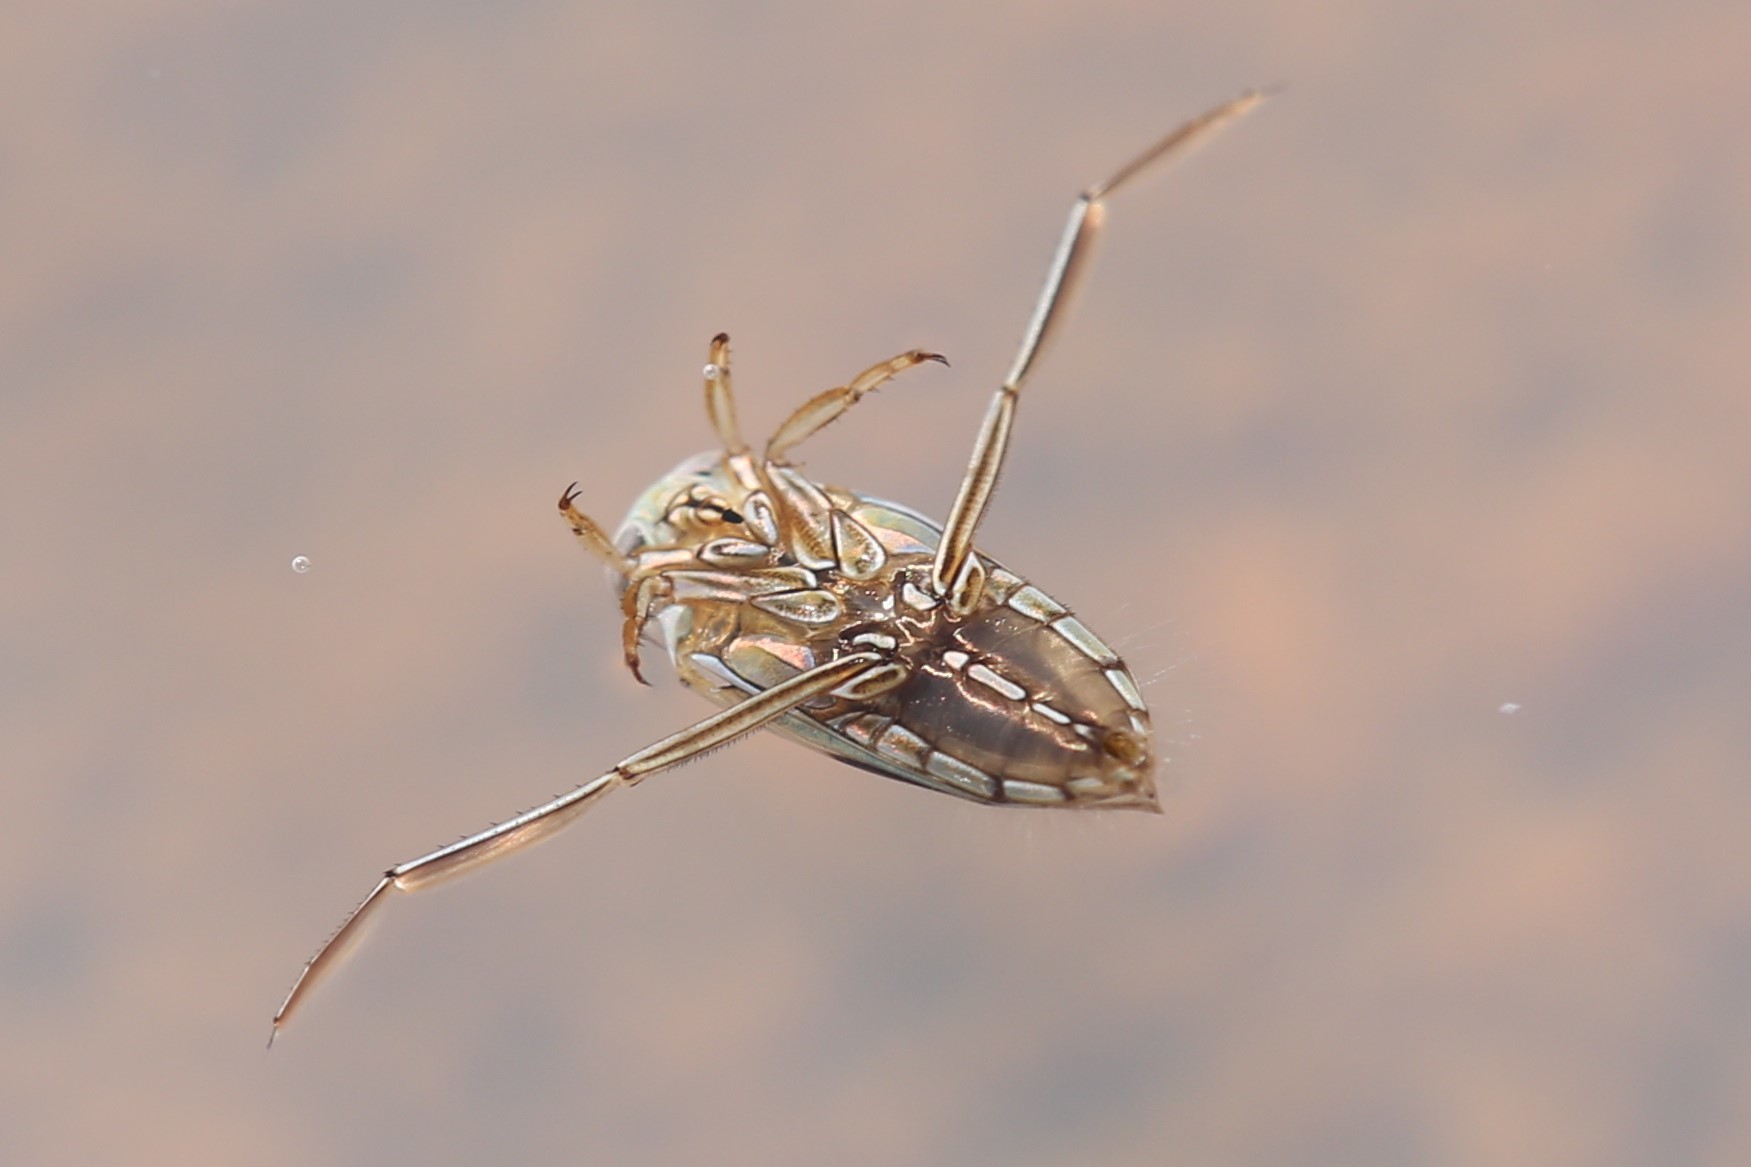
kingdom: Animalia
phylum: Arthropoda
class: Insecta
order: Hemiptera
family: Notonectidae
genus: Enithares
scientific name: Enithares
